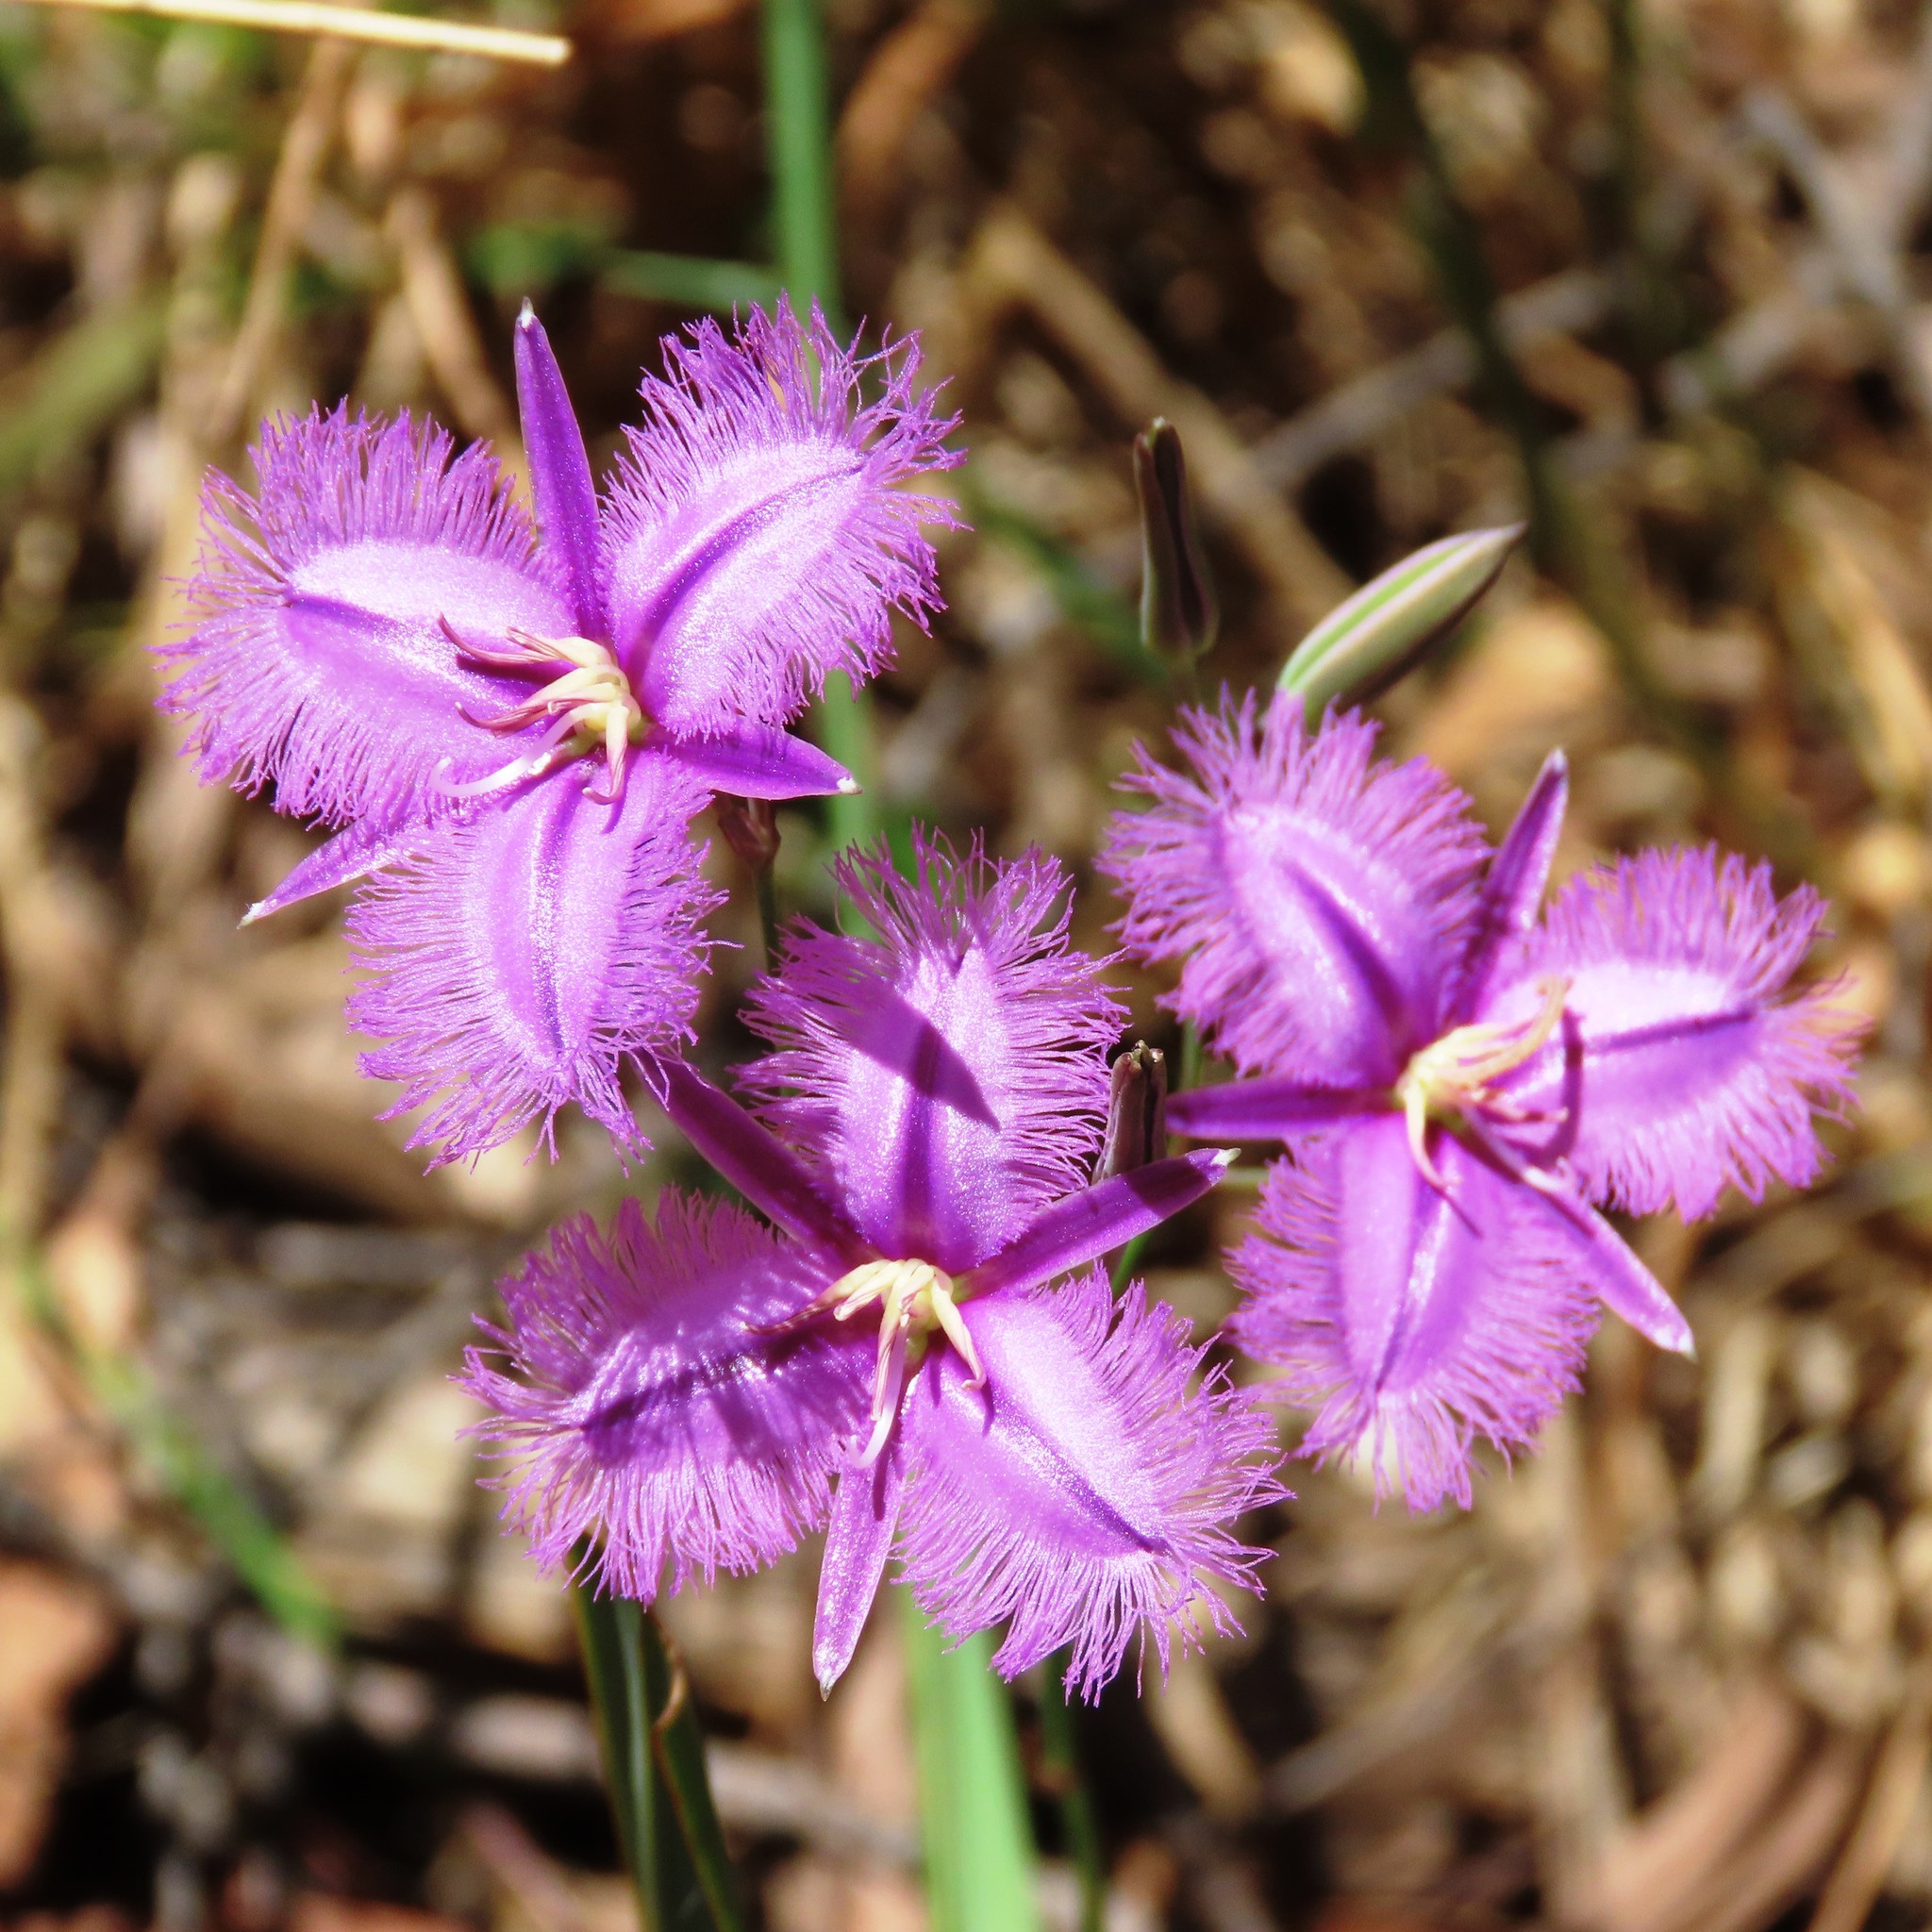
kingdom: Plantae
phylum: Tracheophyta
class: Liliopsida
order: Asparagales
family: Asparagaceae
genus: Thysanotus
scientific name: Thysanotus tuberosus
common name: Common fringed-lily
